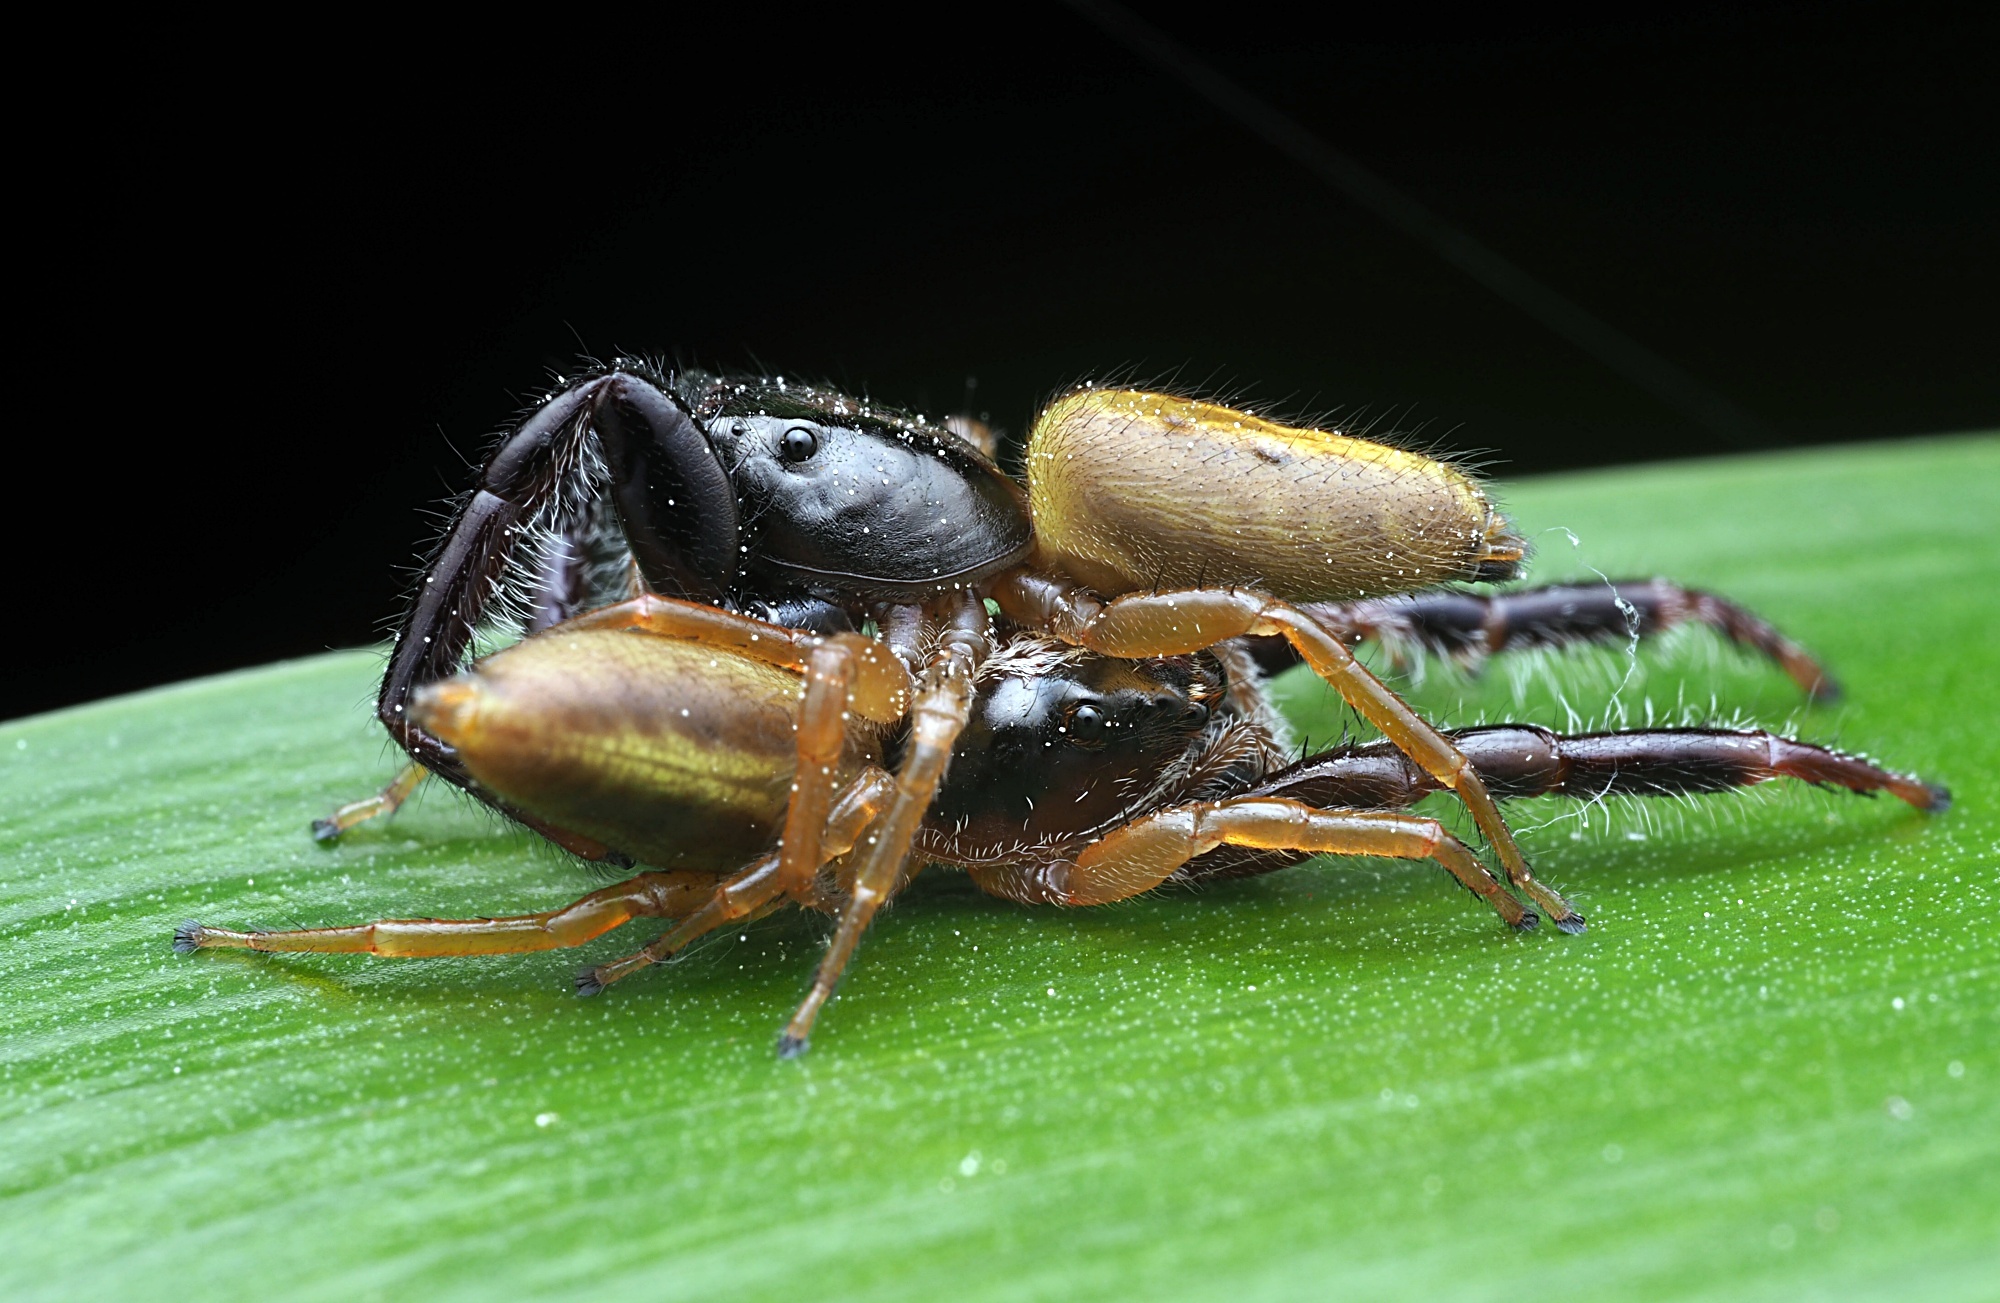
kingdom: Animalia
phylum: Arthropoda
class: Arachnida
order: Araneae
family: Salticidae
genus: Trite
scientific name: Trite planiceps
